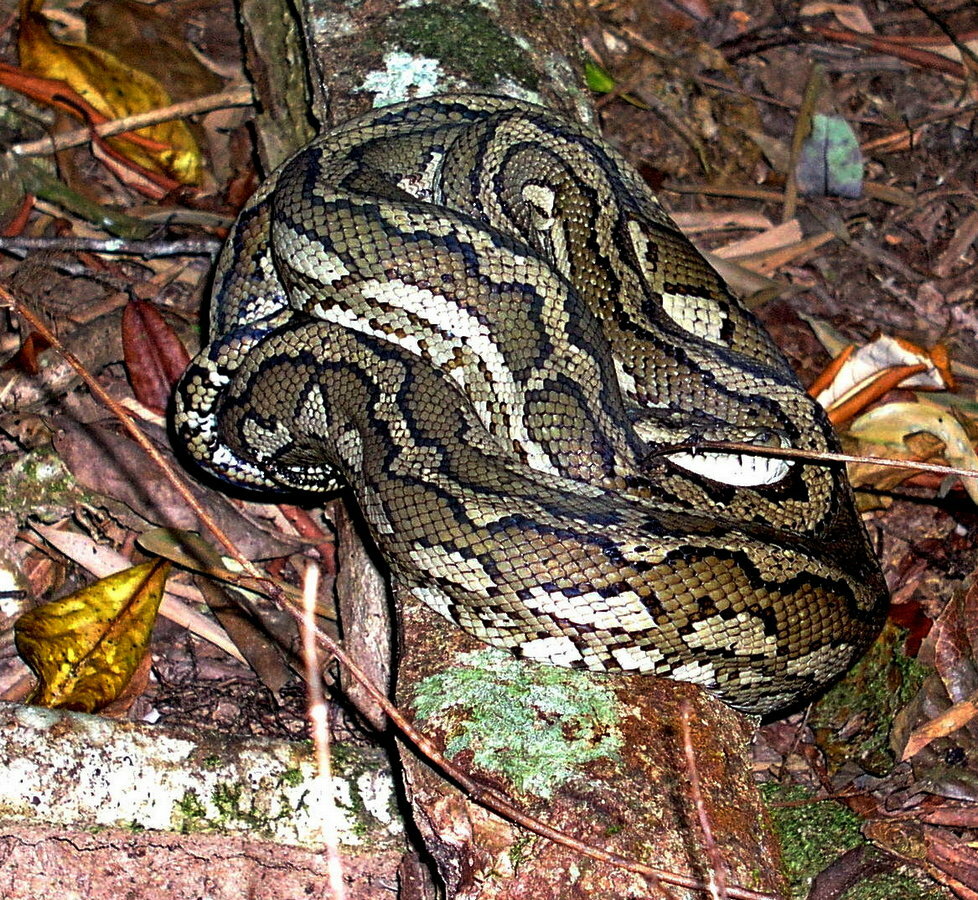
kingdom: Animalia
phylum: Chordata
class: Squamata
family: Pythonidae
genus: Morelia
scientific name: Morelia spilota
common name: Carpet python
